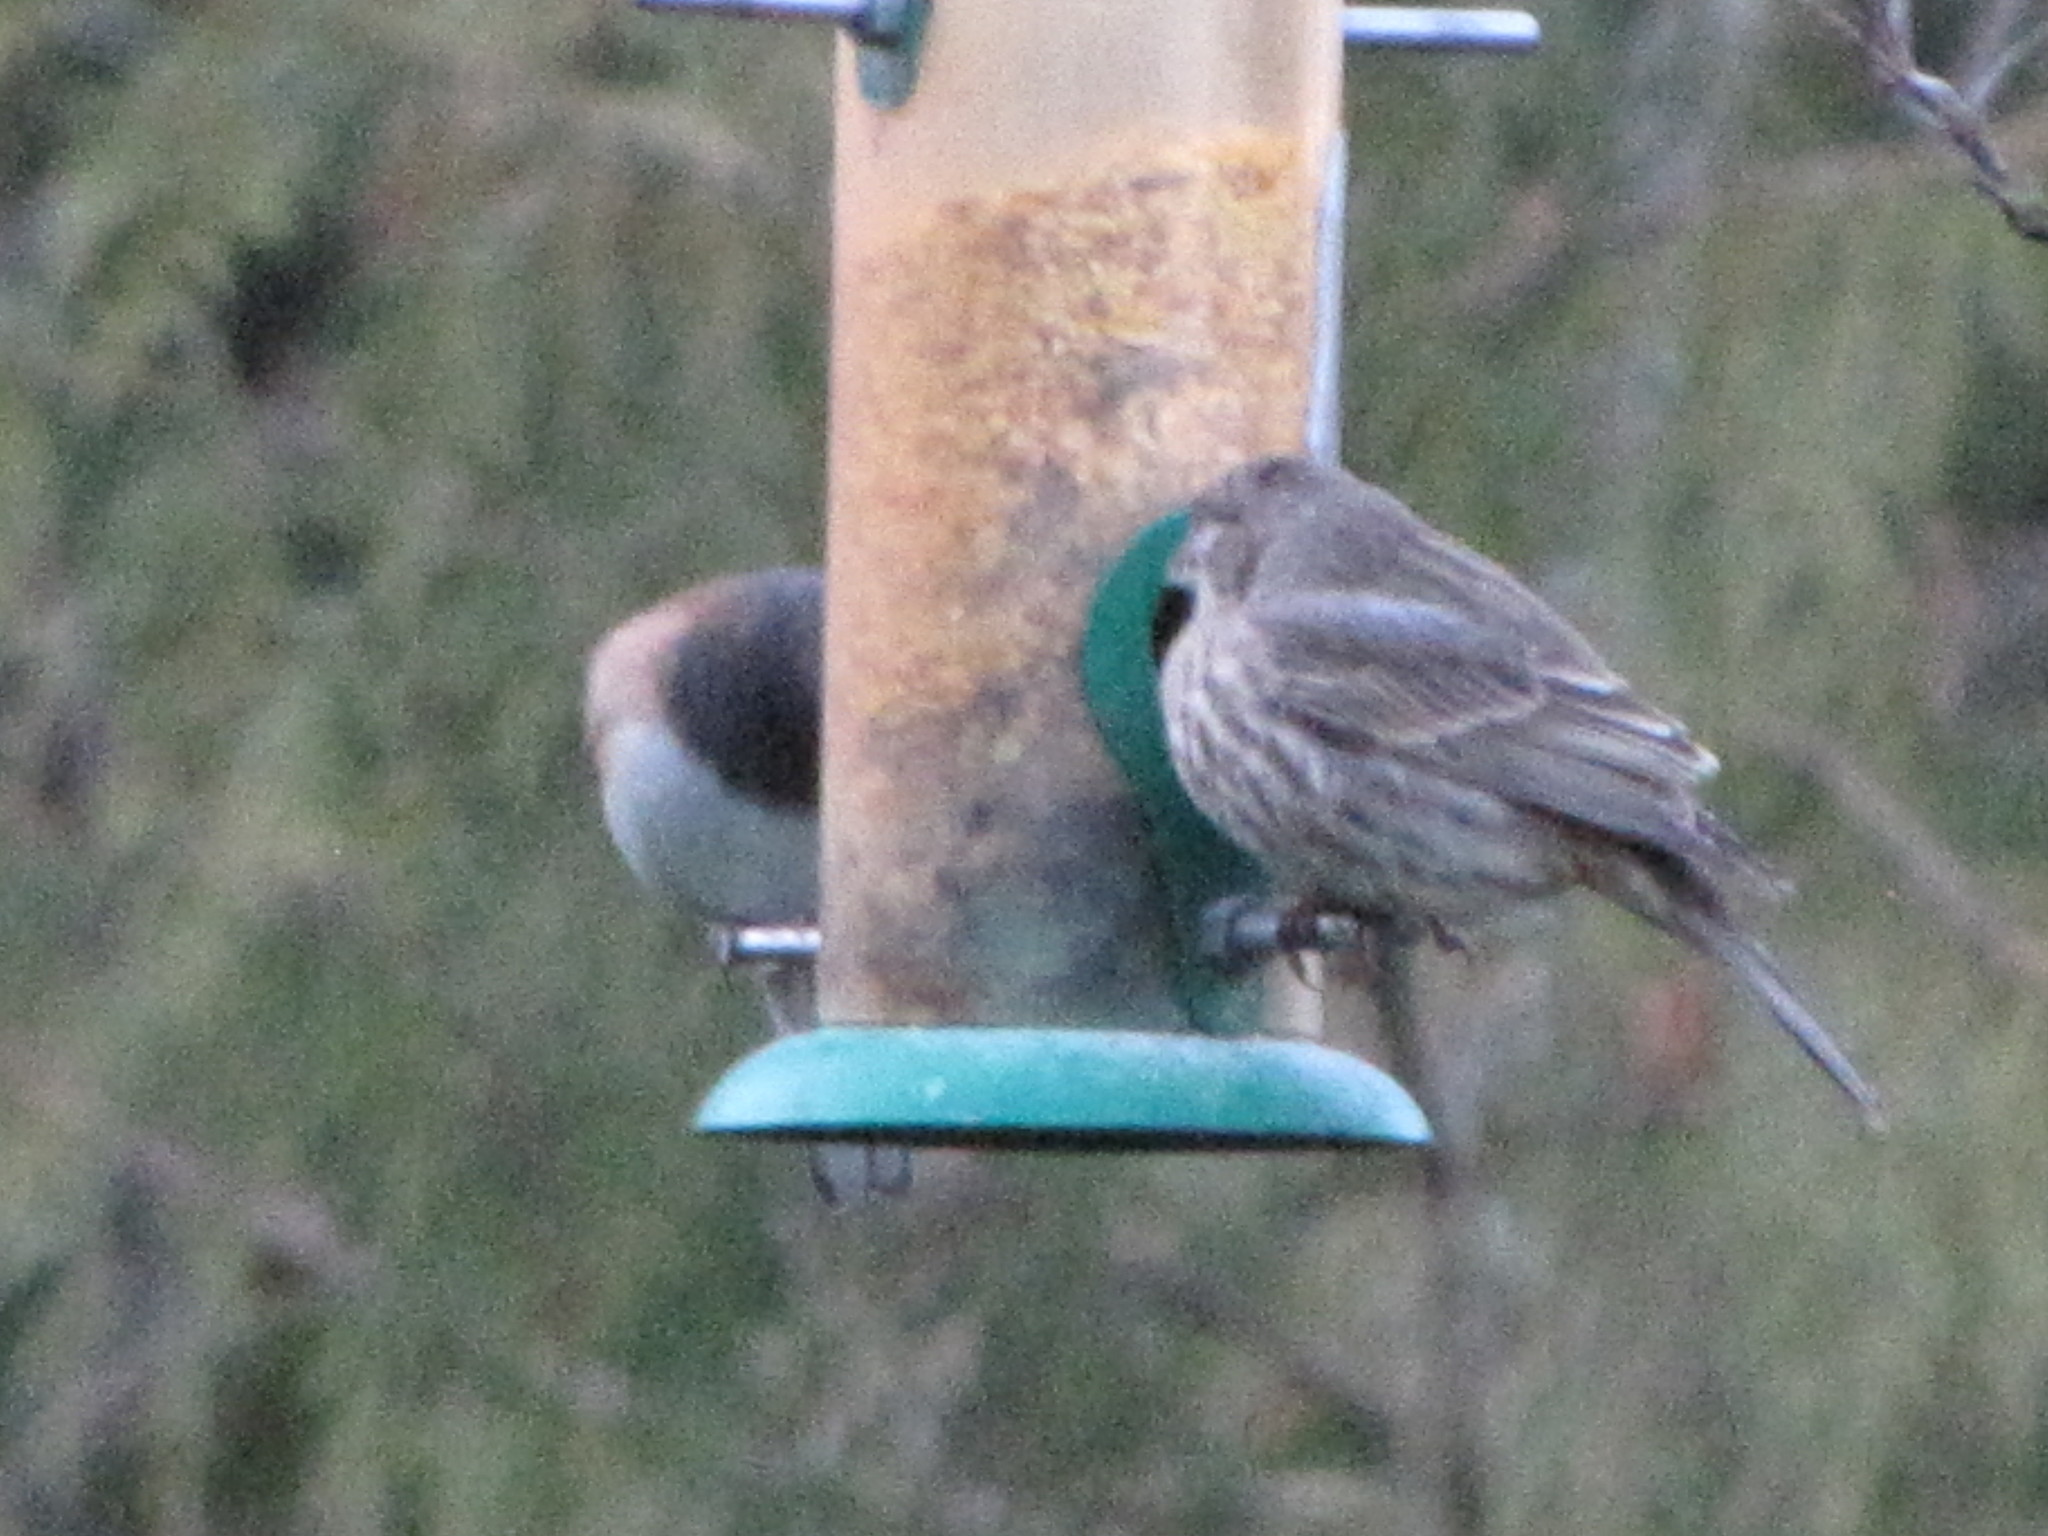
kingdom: Animalia
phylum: Chordata
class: Aves
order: Passeriformes
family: Fringillidae
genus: Haemorhous
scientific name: Haemorhous mexicanus
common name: House finch
